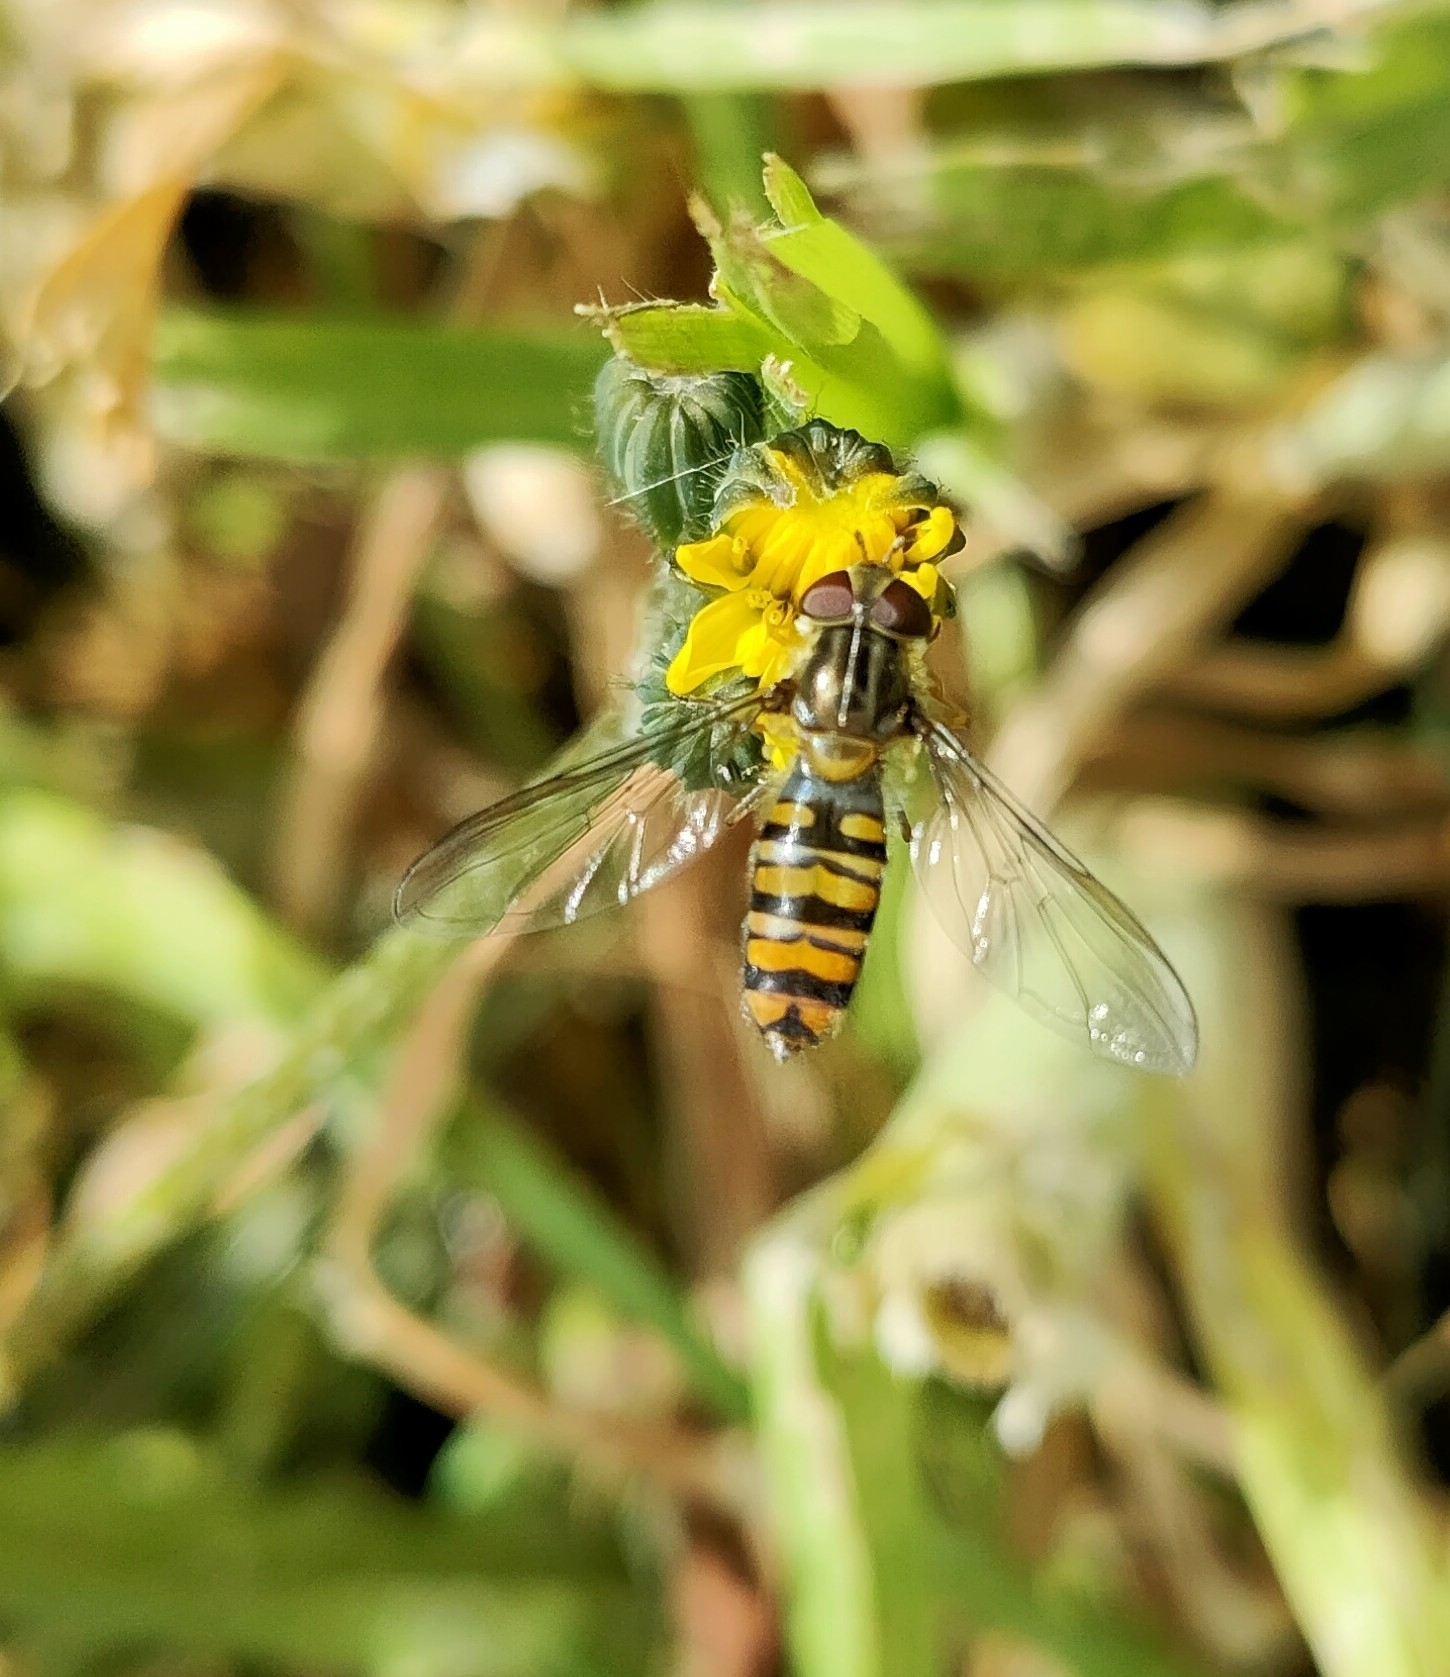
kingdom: Animalia
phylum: Arthropoda
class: Insecta
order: Diptera
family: Syrphidae
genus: Episyrphus
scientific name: Episyrphus balteatus
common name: Marmalade hoverfly
